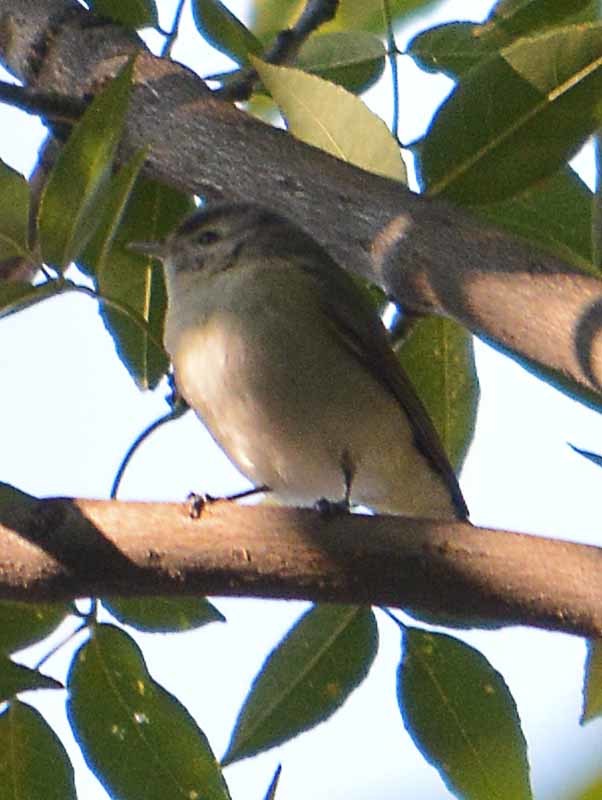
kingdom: Animalia
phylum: Chordata
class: Aves
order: Passeriformes
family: Vireonidae
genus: Vireo
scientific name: Vireo gilvus
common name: Warbling vireo
